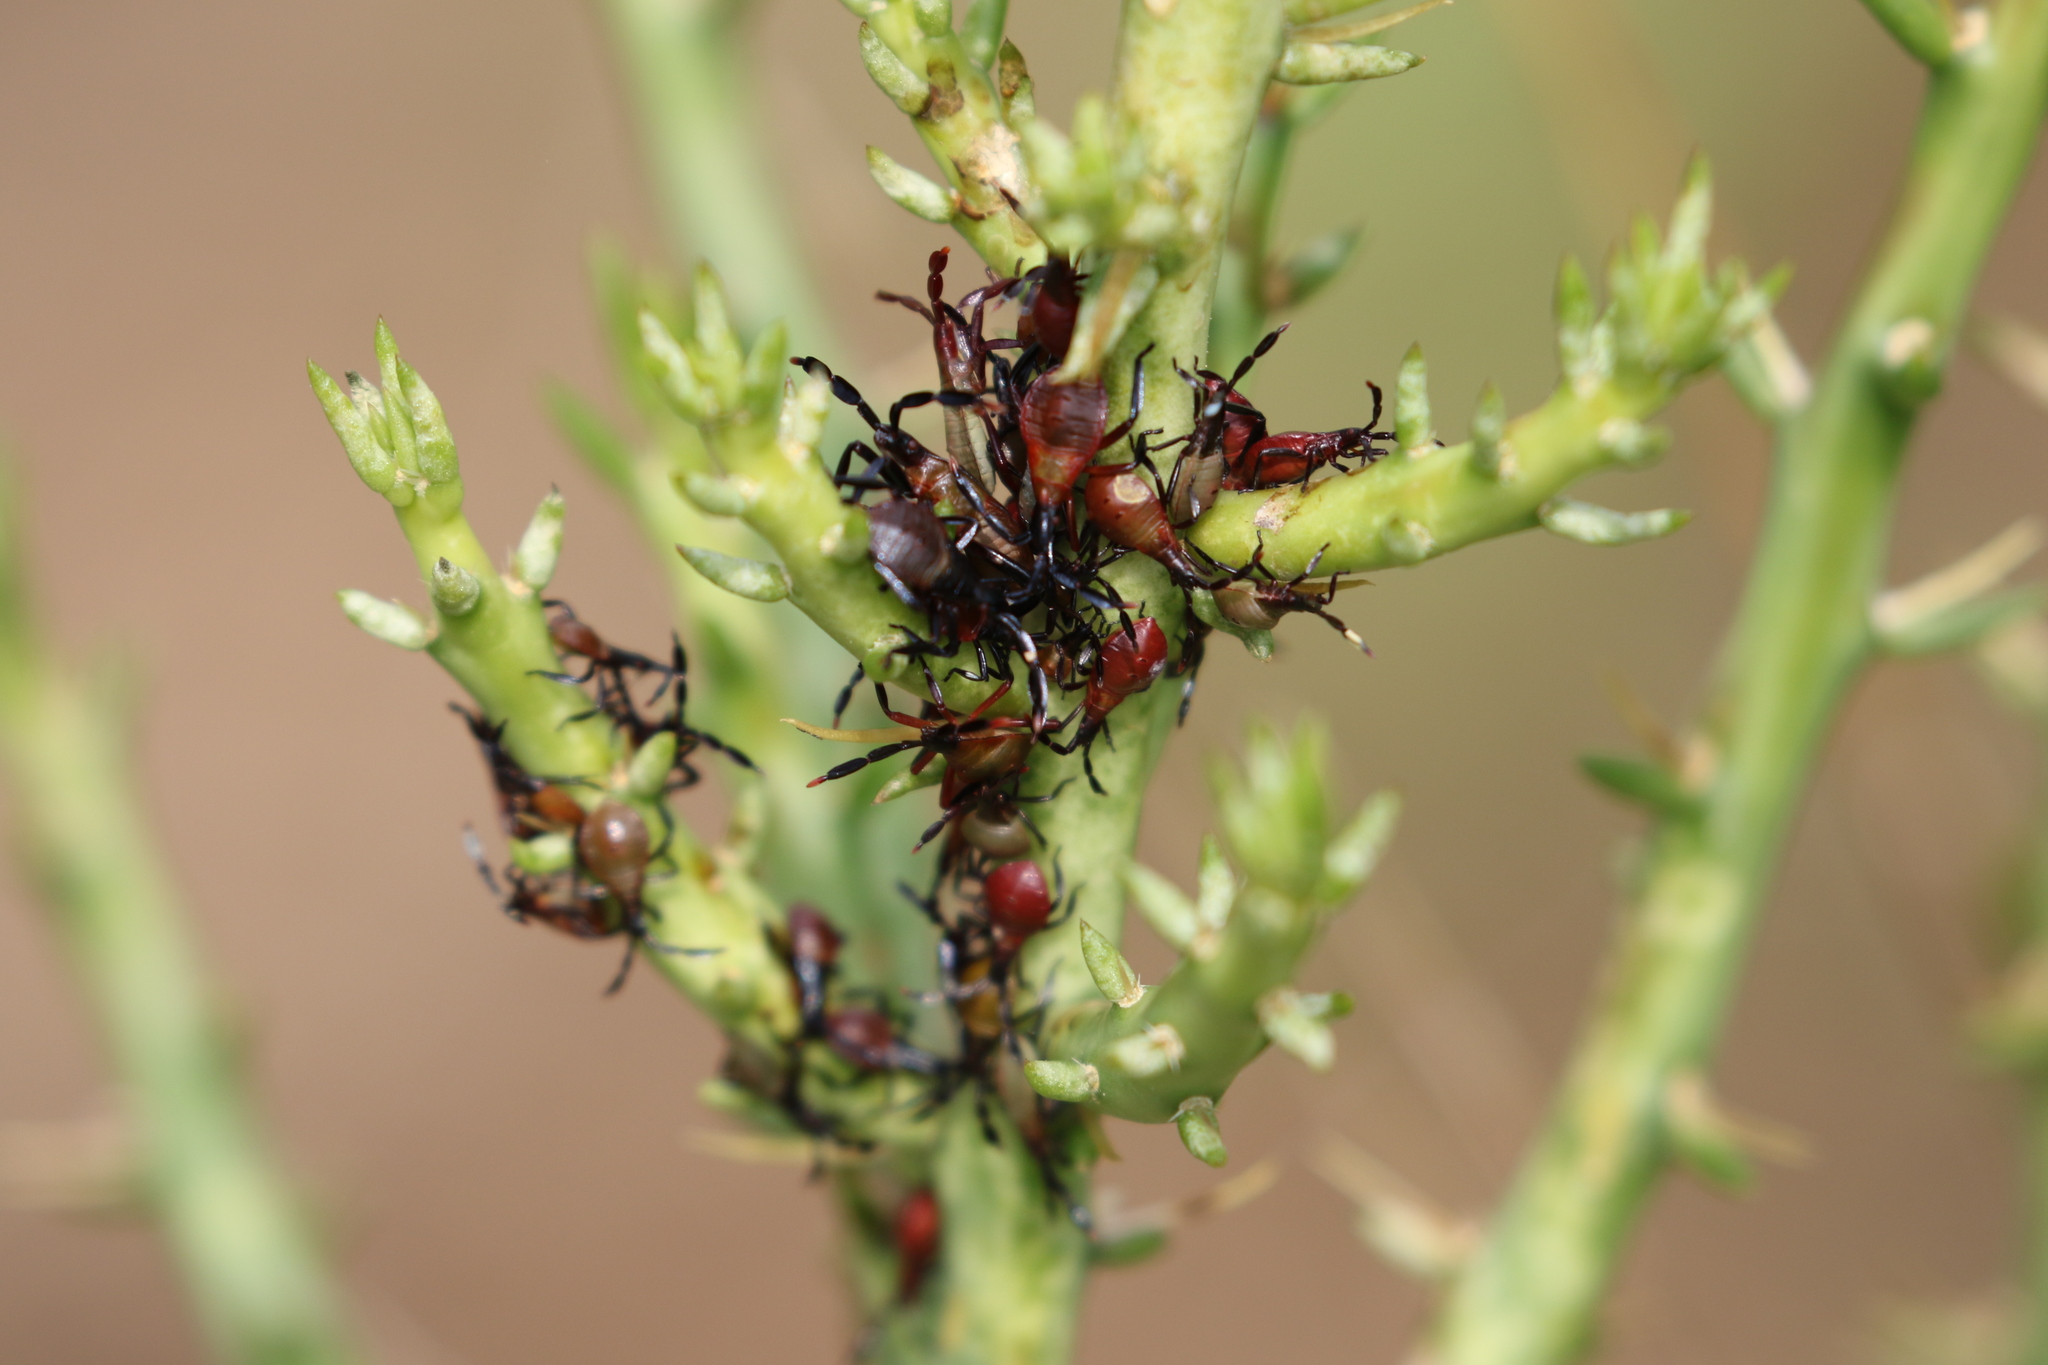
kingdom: Animalia
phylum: Arthropoda
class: Insecta
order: Hemiptera
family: Coreidae
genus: Chelinidea
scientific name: Chelinidea vittiger
